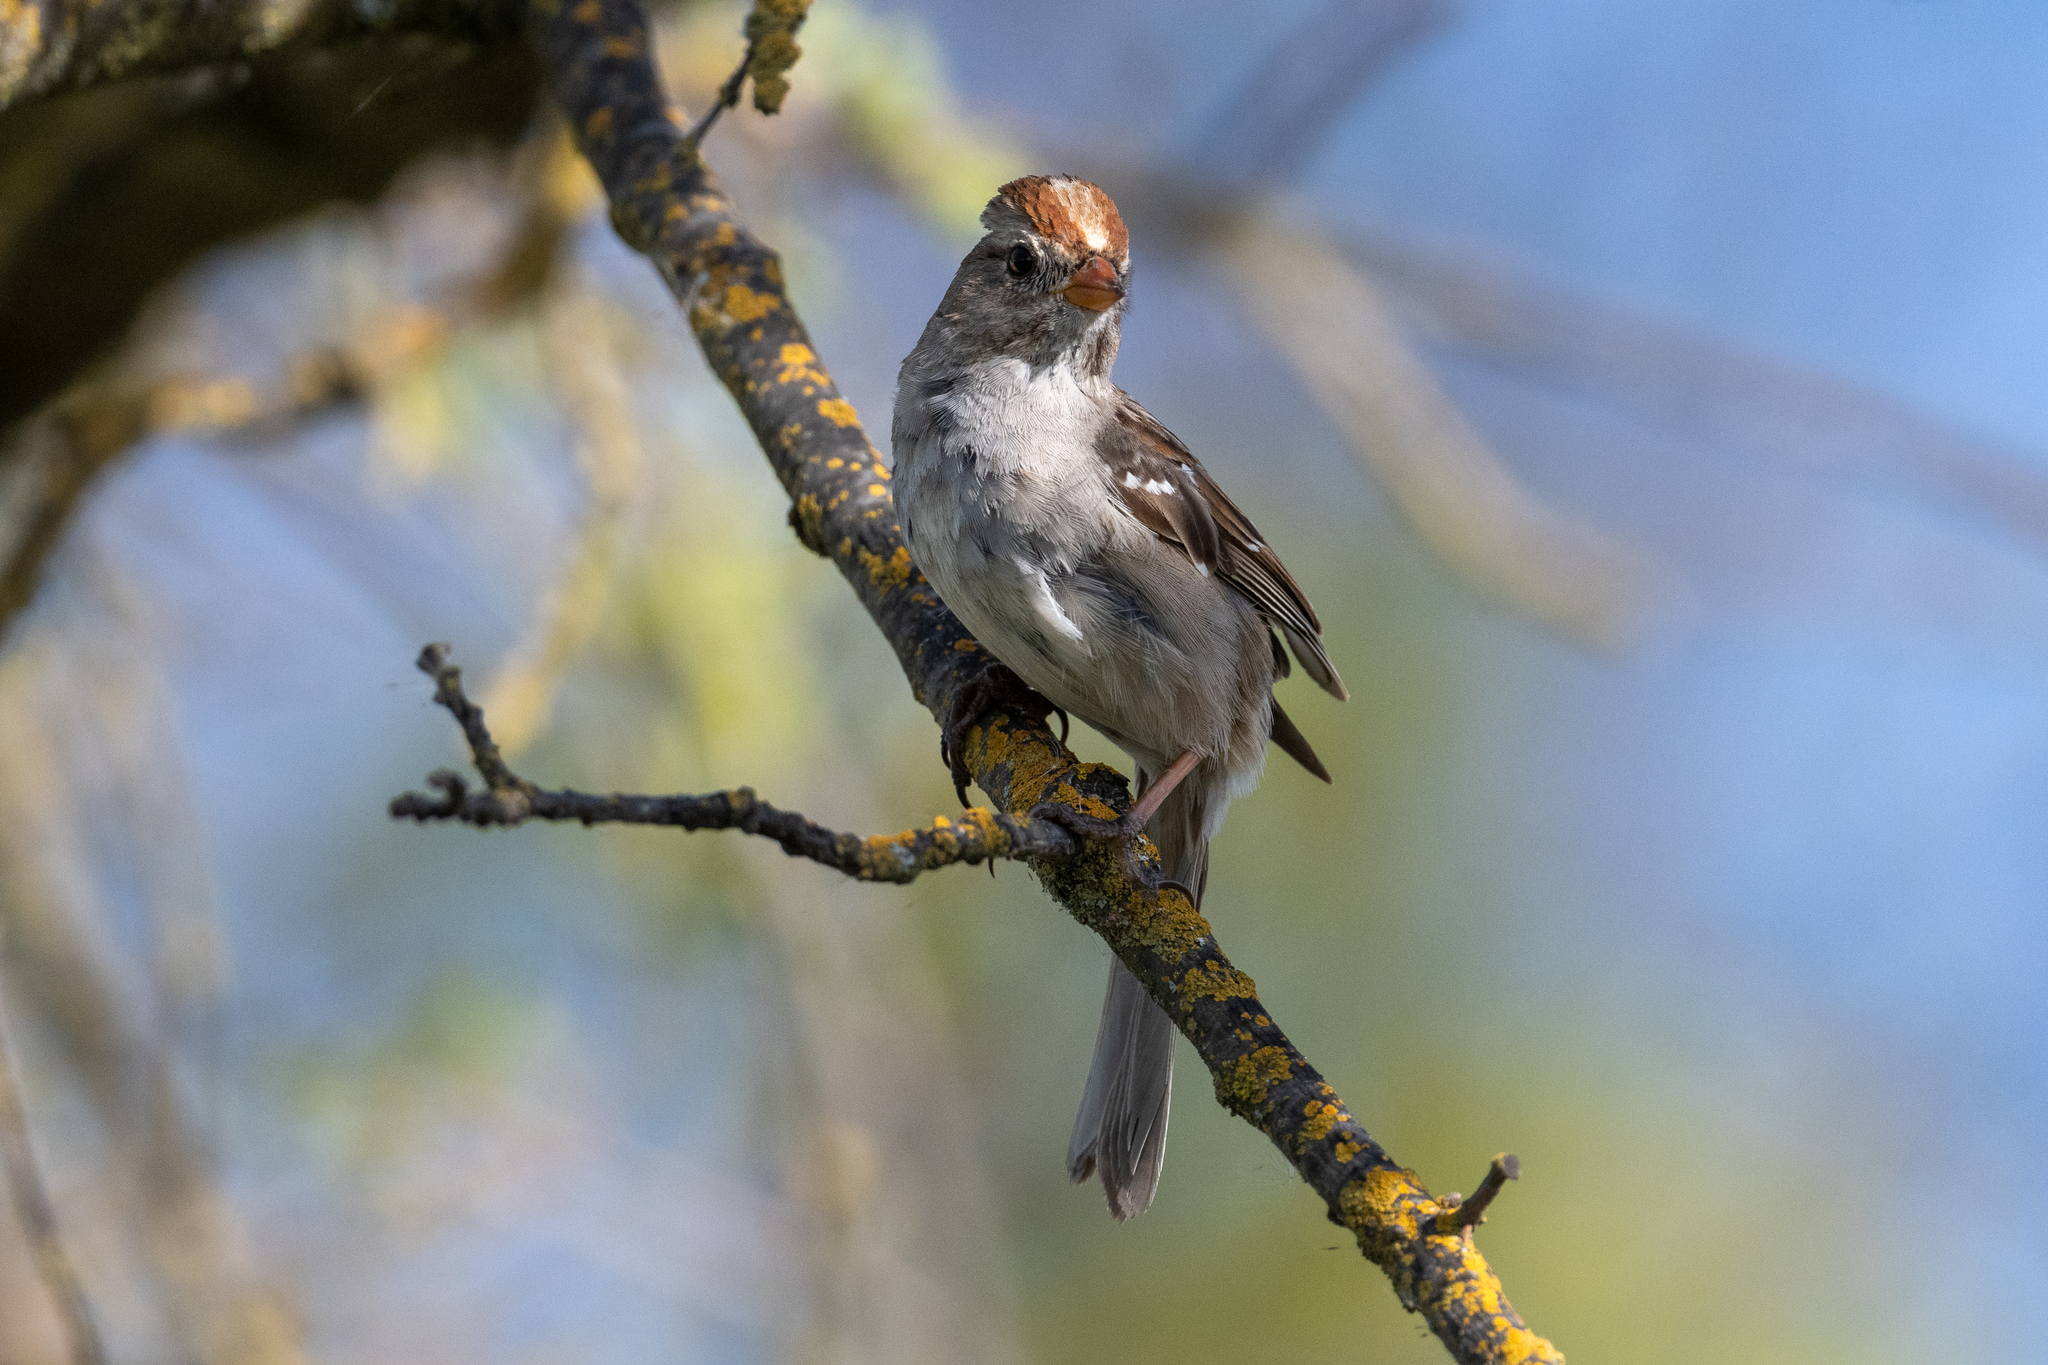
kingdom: Animalia
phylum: Chordata
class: Aves
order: Passeriformes
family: Passerellidae
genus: Zonotrichia
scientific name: Zonotrichia leucophrys
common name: White-crowned sparrow
